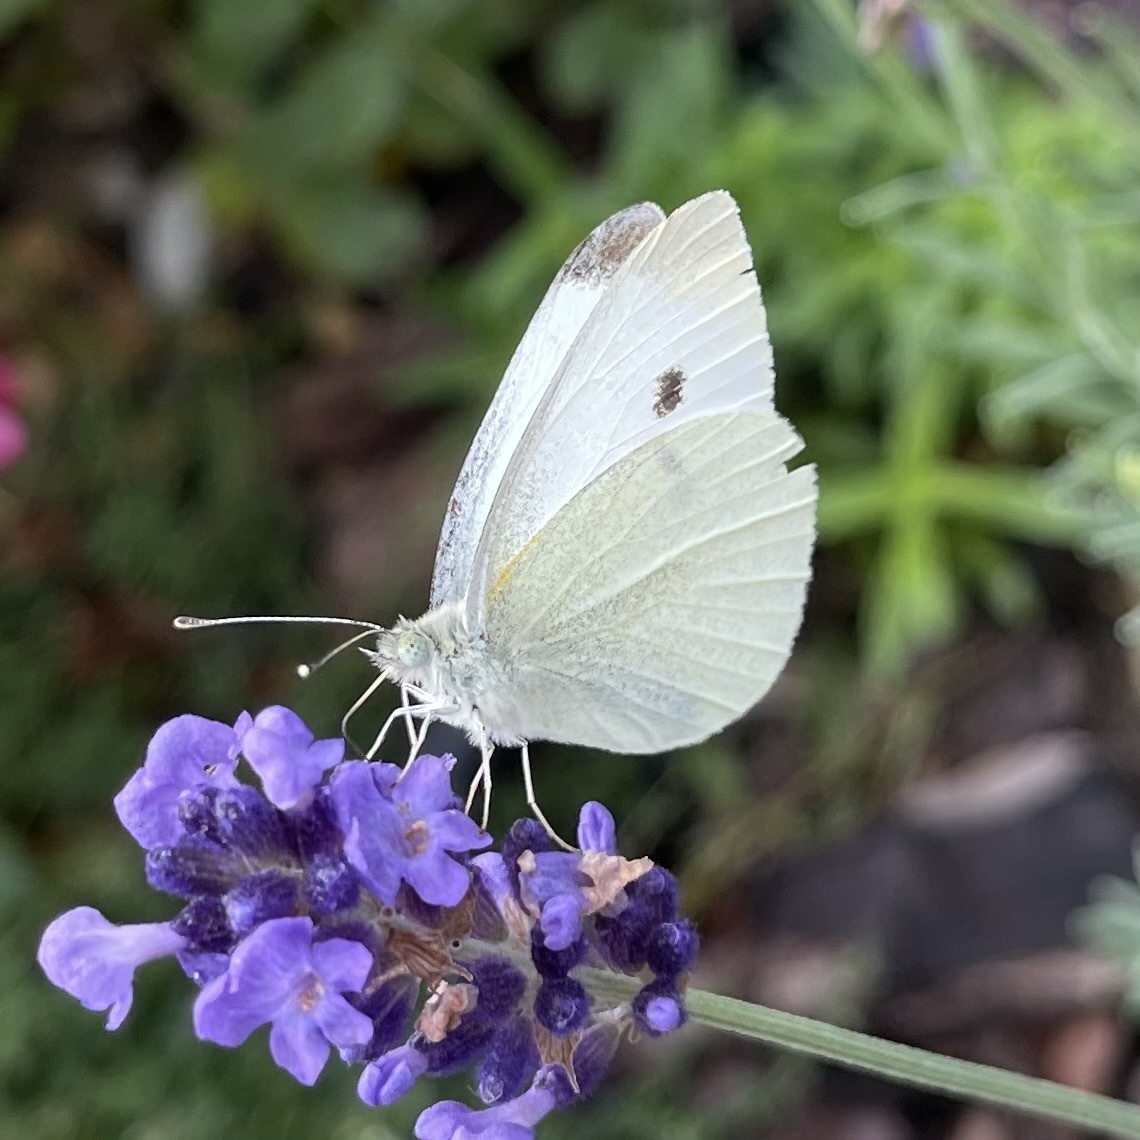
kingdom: Animalia
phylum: Arthropoda
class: Insecta
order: Lepidoptera
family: Pieridae
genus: Pieris
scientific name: Pieris rapae
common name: Small white
